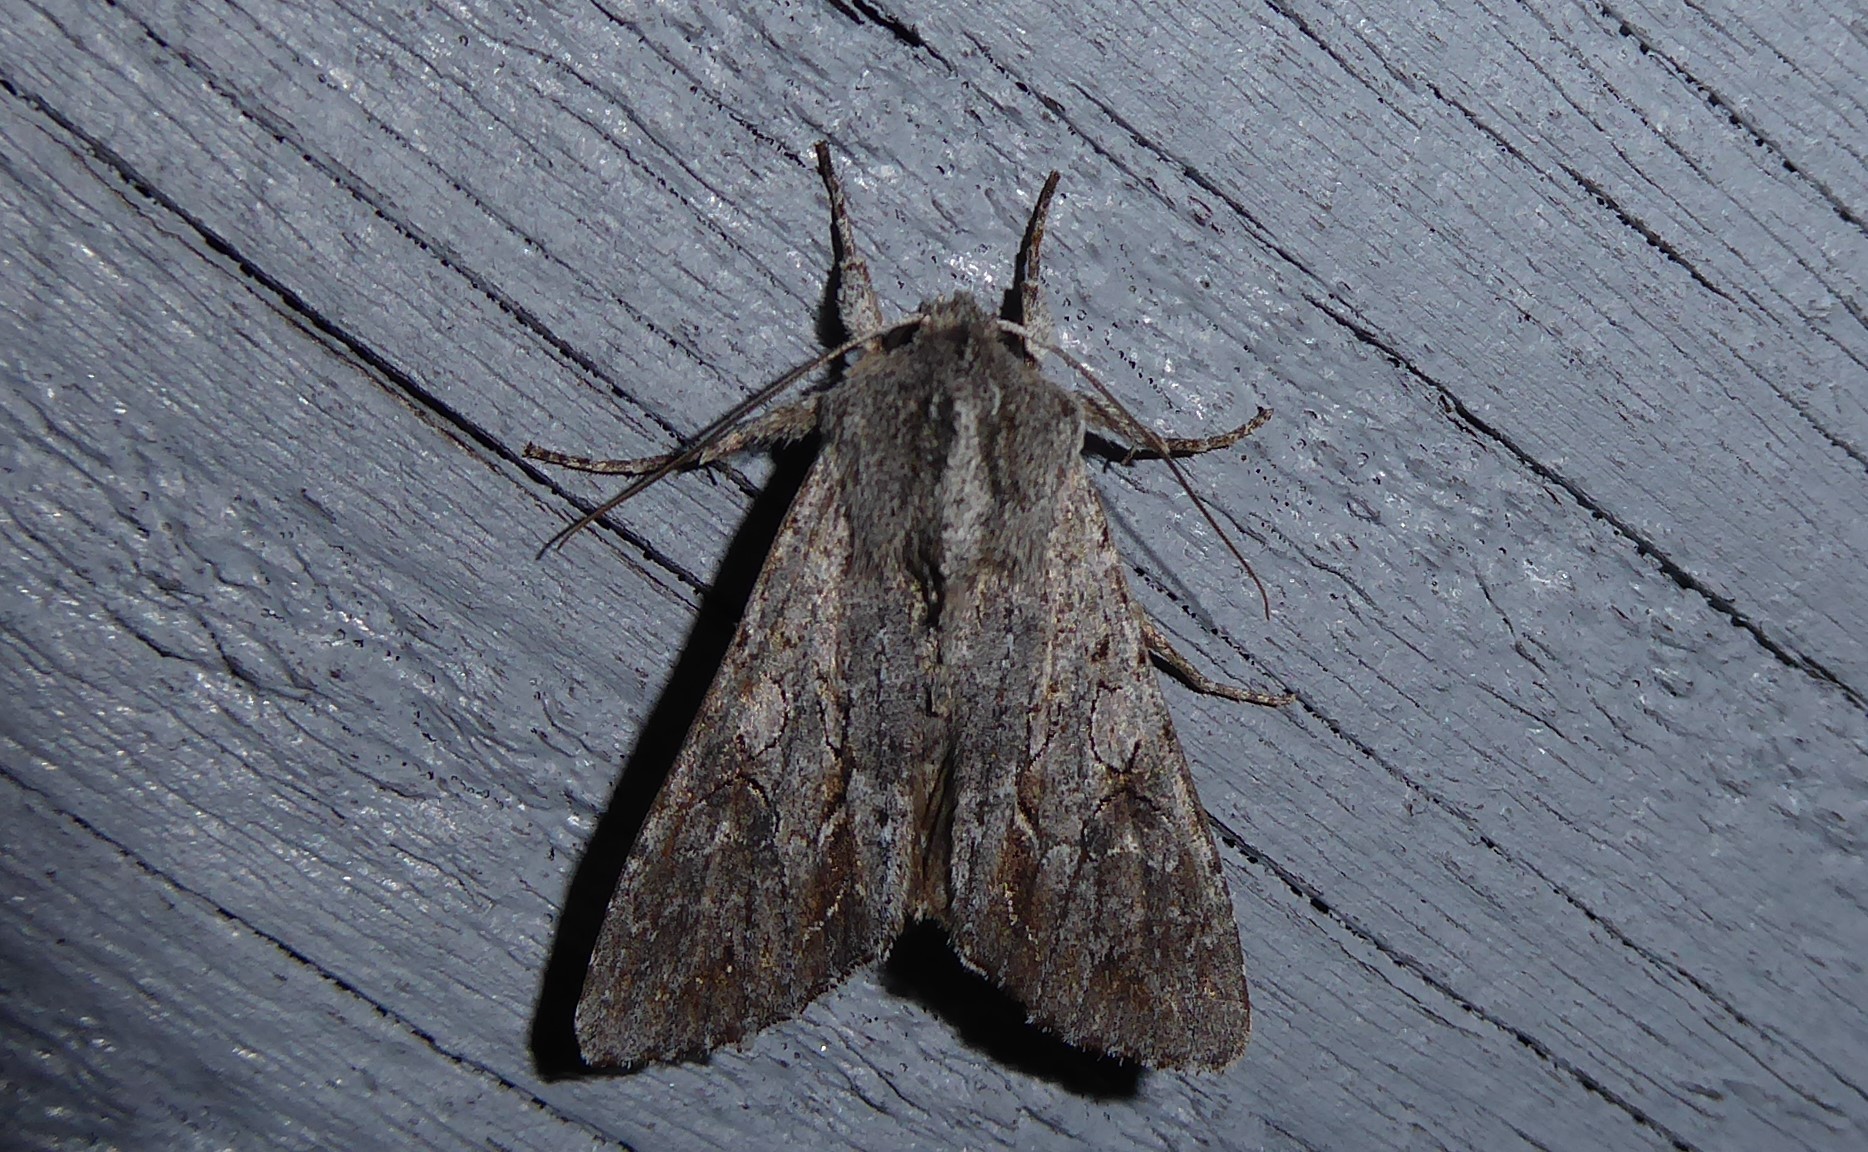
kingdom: Animalia
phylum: Arthropoda
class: Insecta
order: Lepidoptera
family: Noctuidae
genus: Ichneutica
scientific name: Ichneutica
